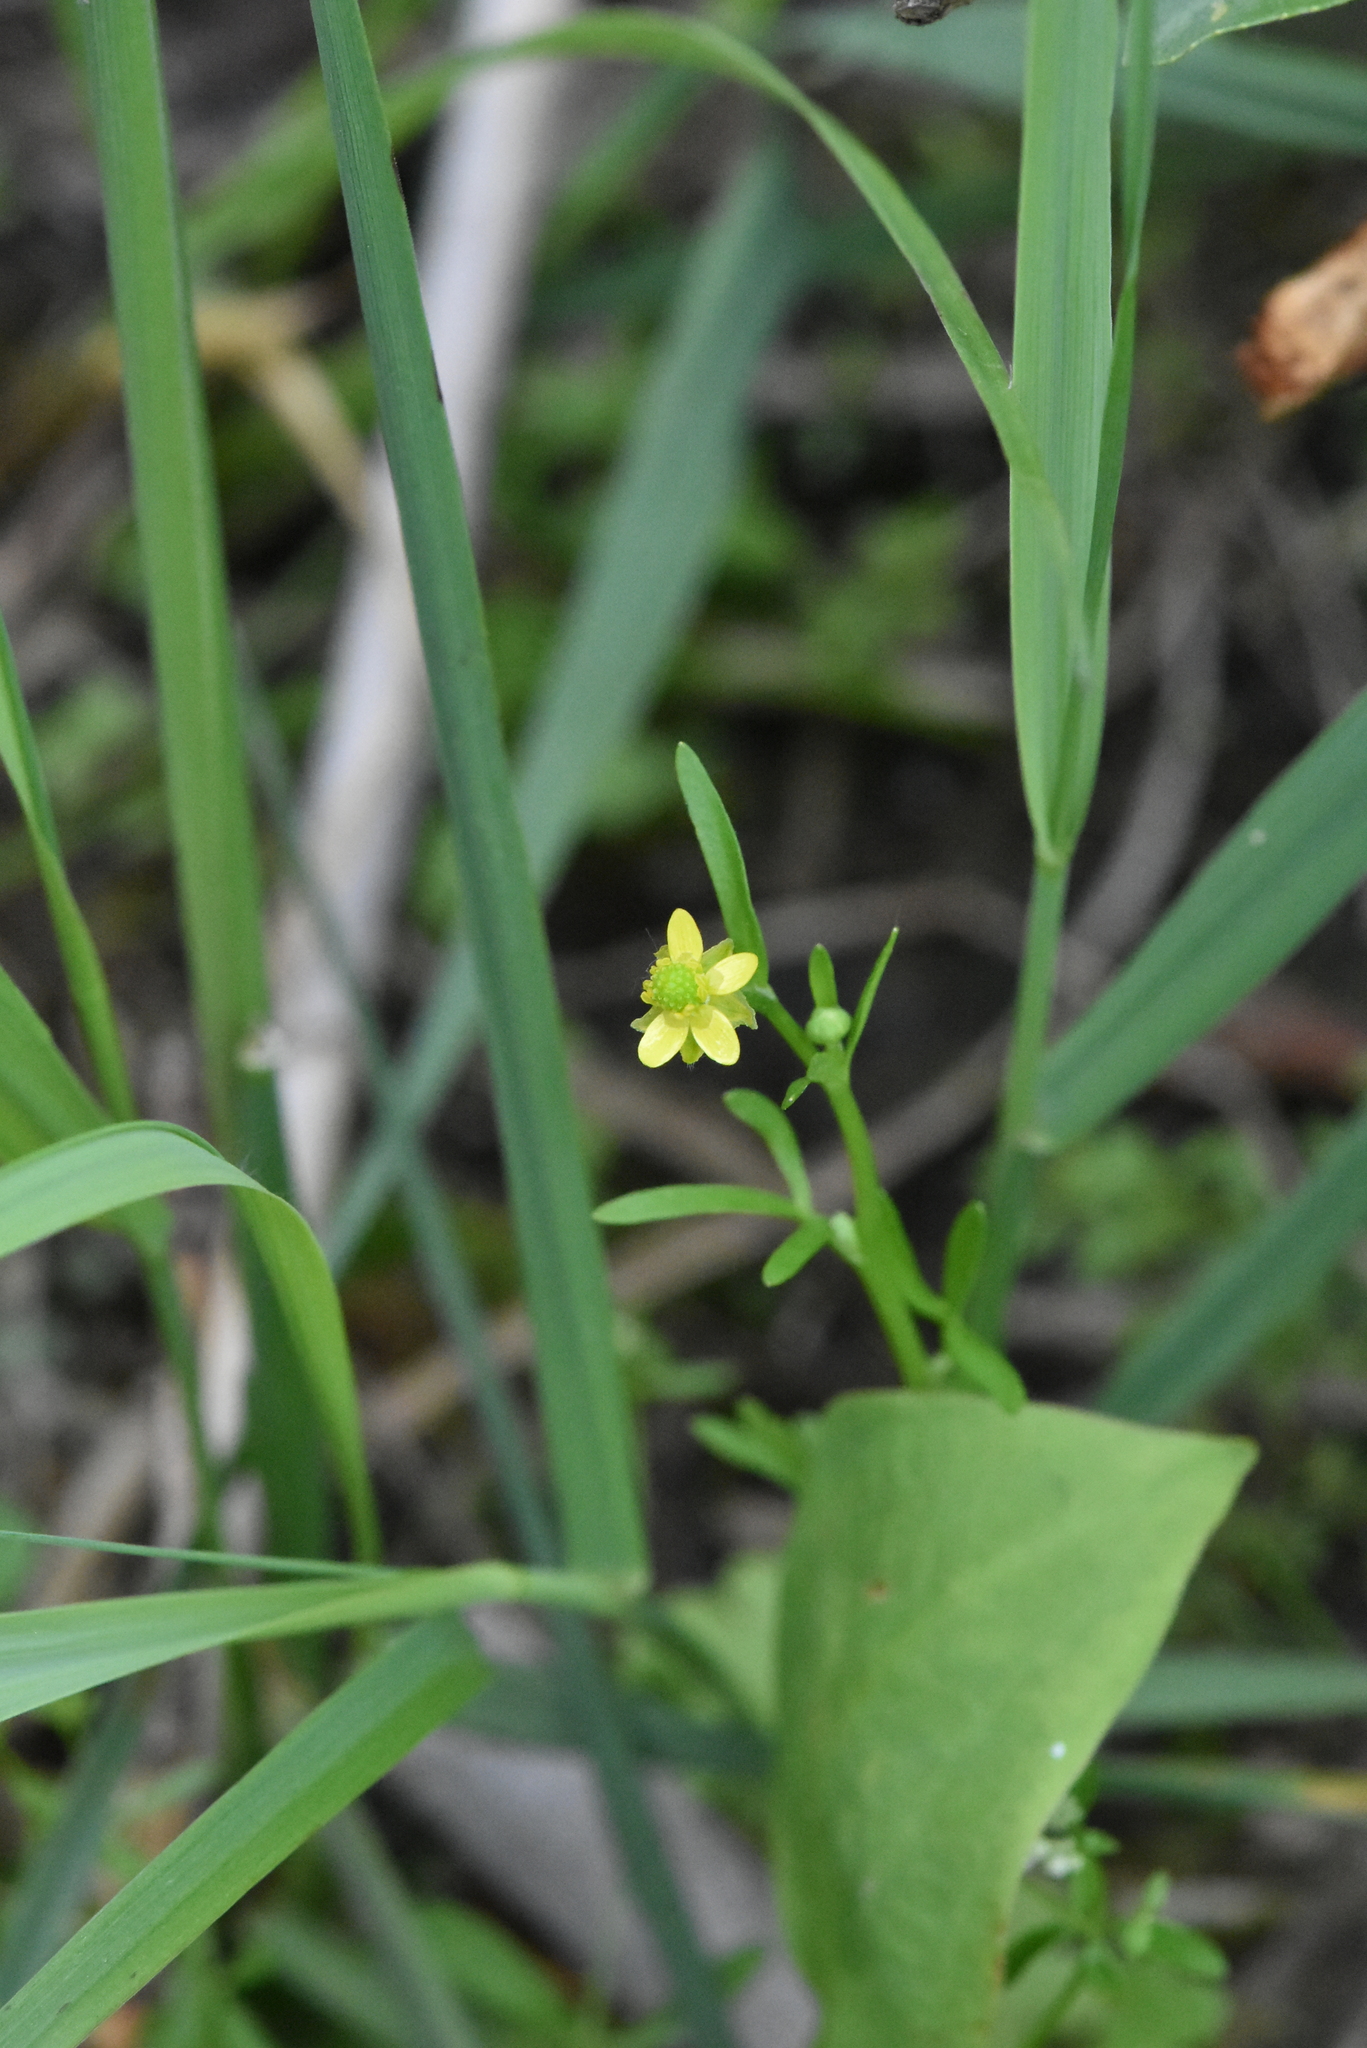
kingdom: Plantae
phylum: Tracheophyta
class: Magnoliopsida
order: Ranunculales
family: Ranunculaceae
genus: Ranunculus
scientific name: Ranunculus sceleratus
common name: Celery-leaved buttercup
